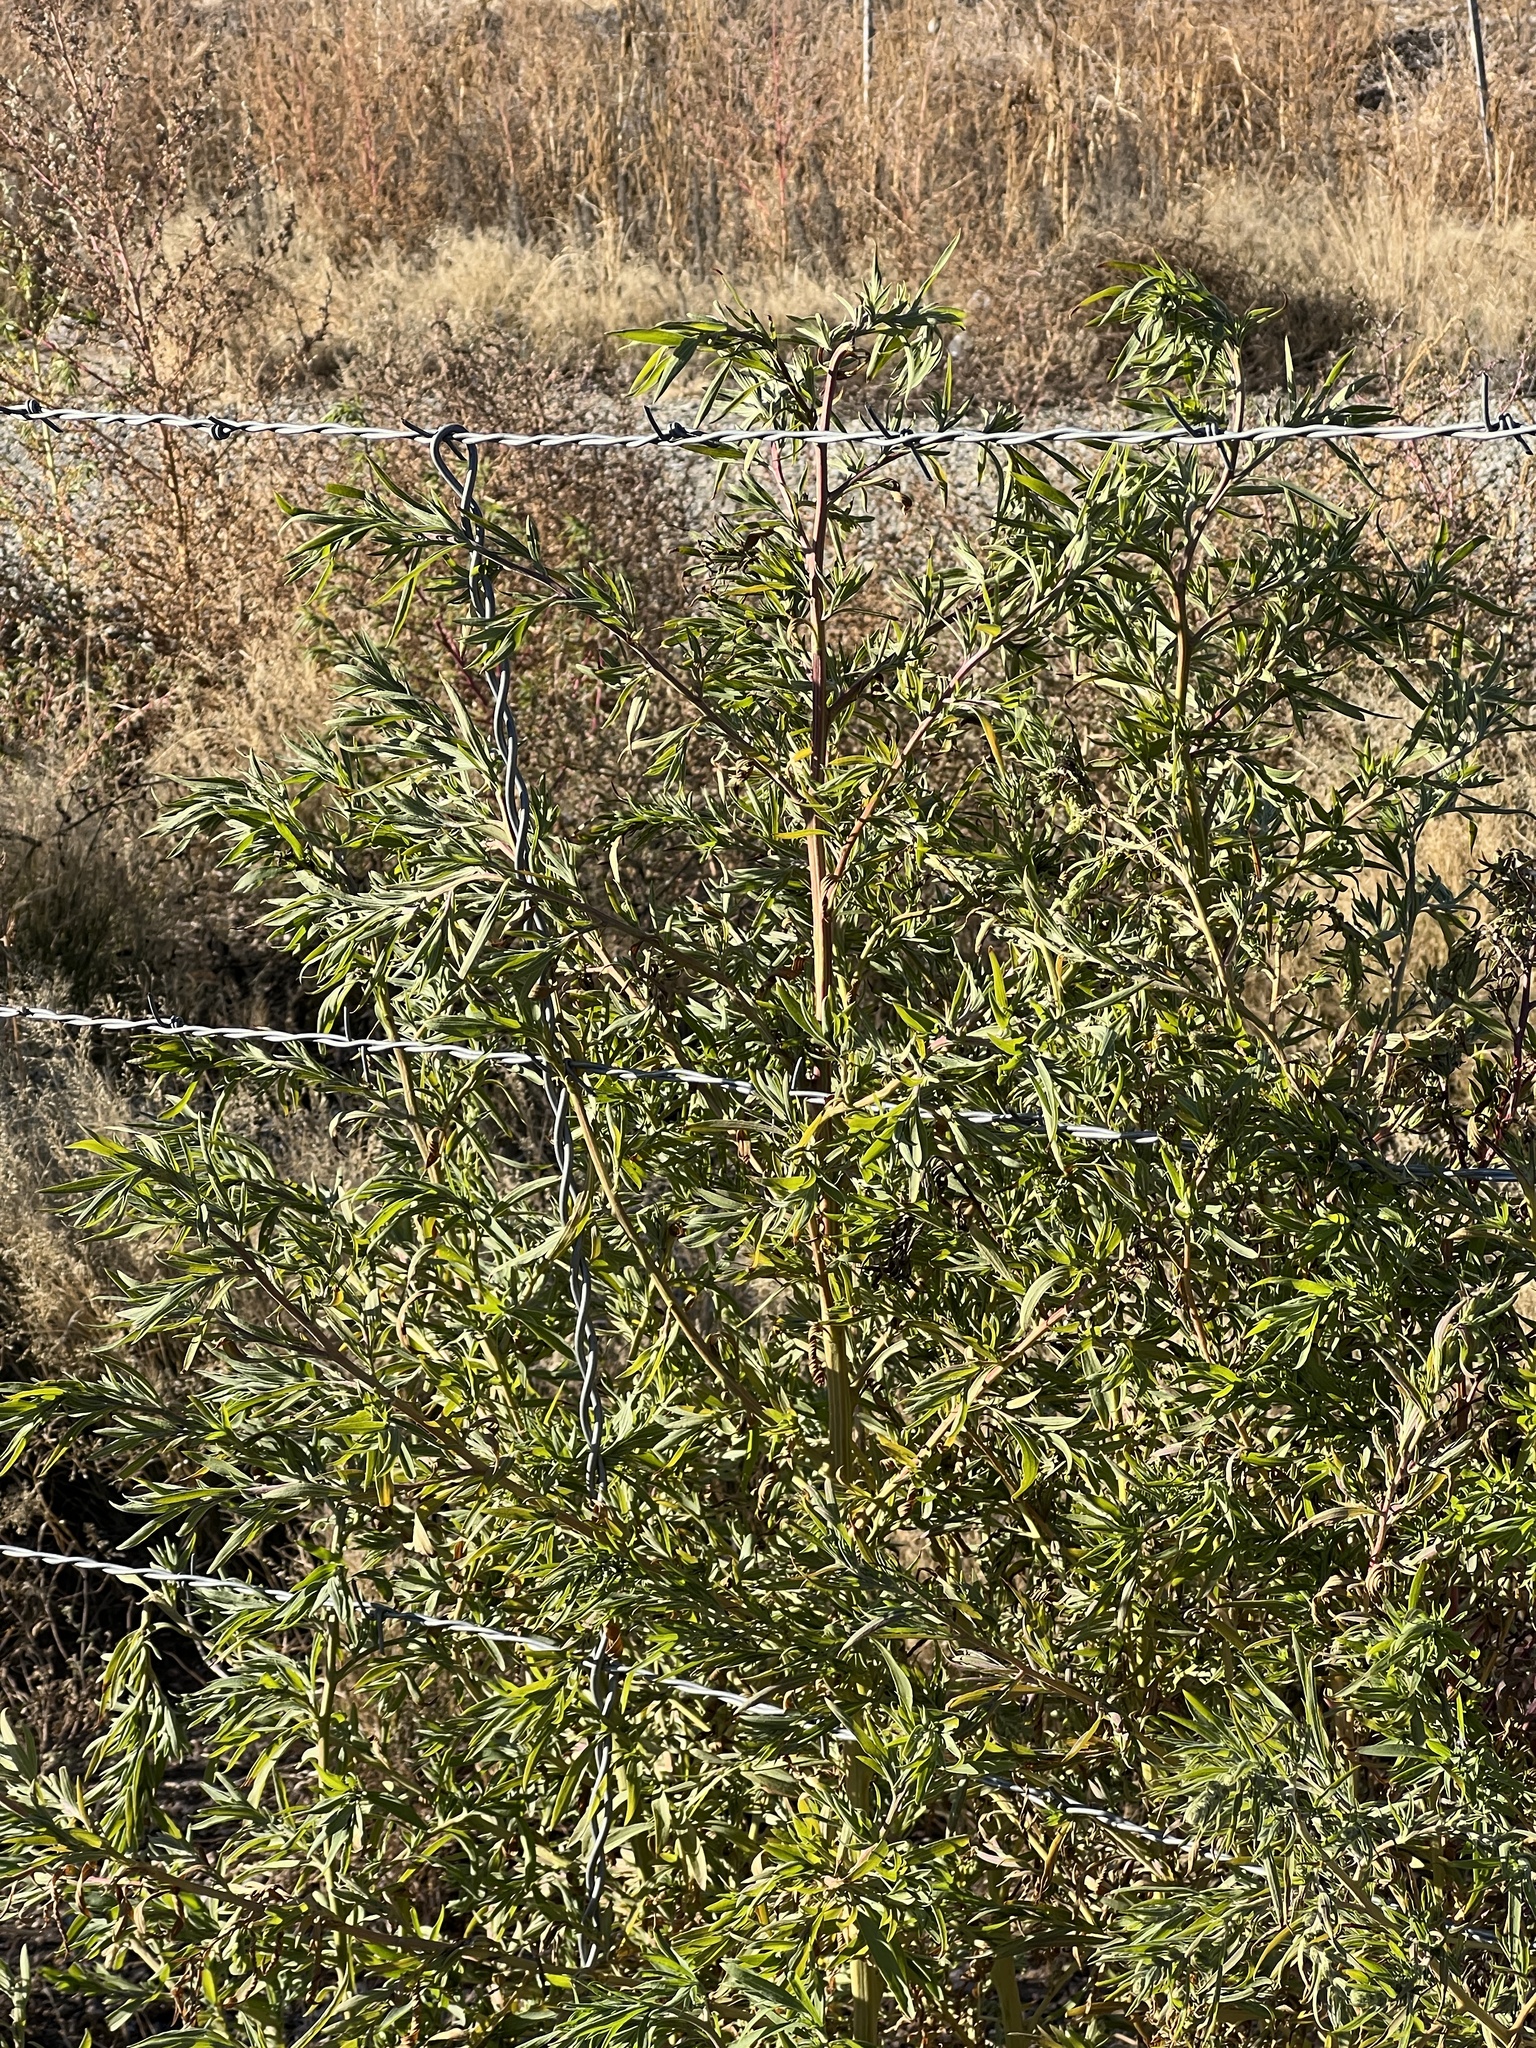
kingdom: Plantae
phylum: Tracheophyta
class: Magnoliopsida
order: Caryophyllales
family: Amaranthaceae
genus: Bassia
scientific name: Bassia scoparia
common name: Belvedere
